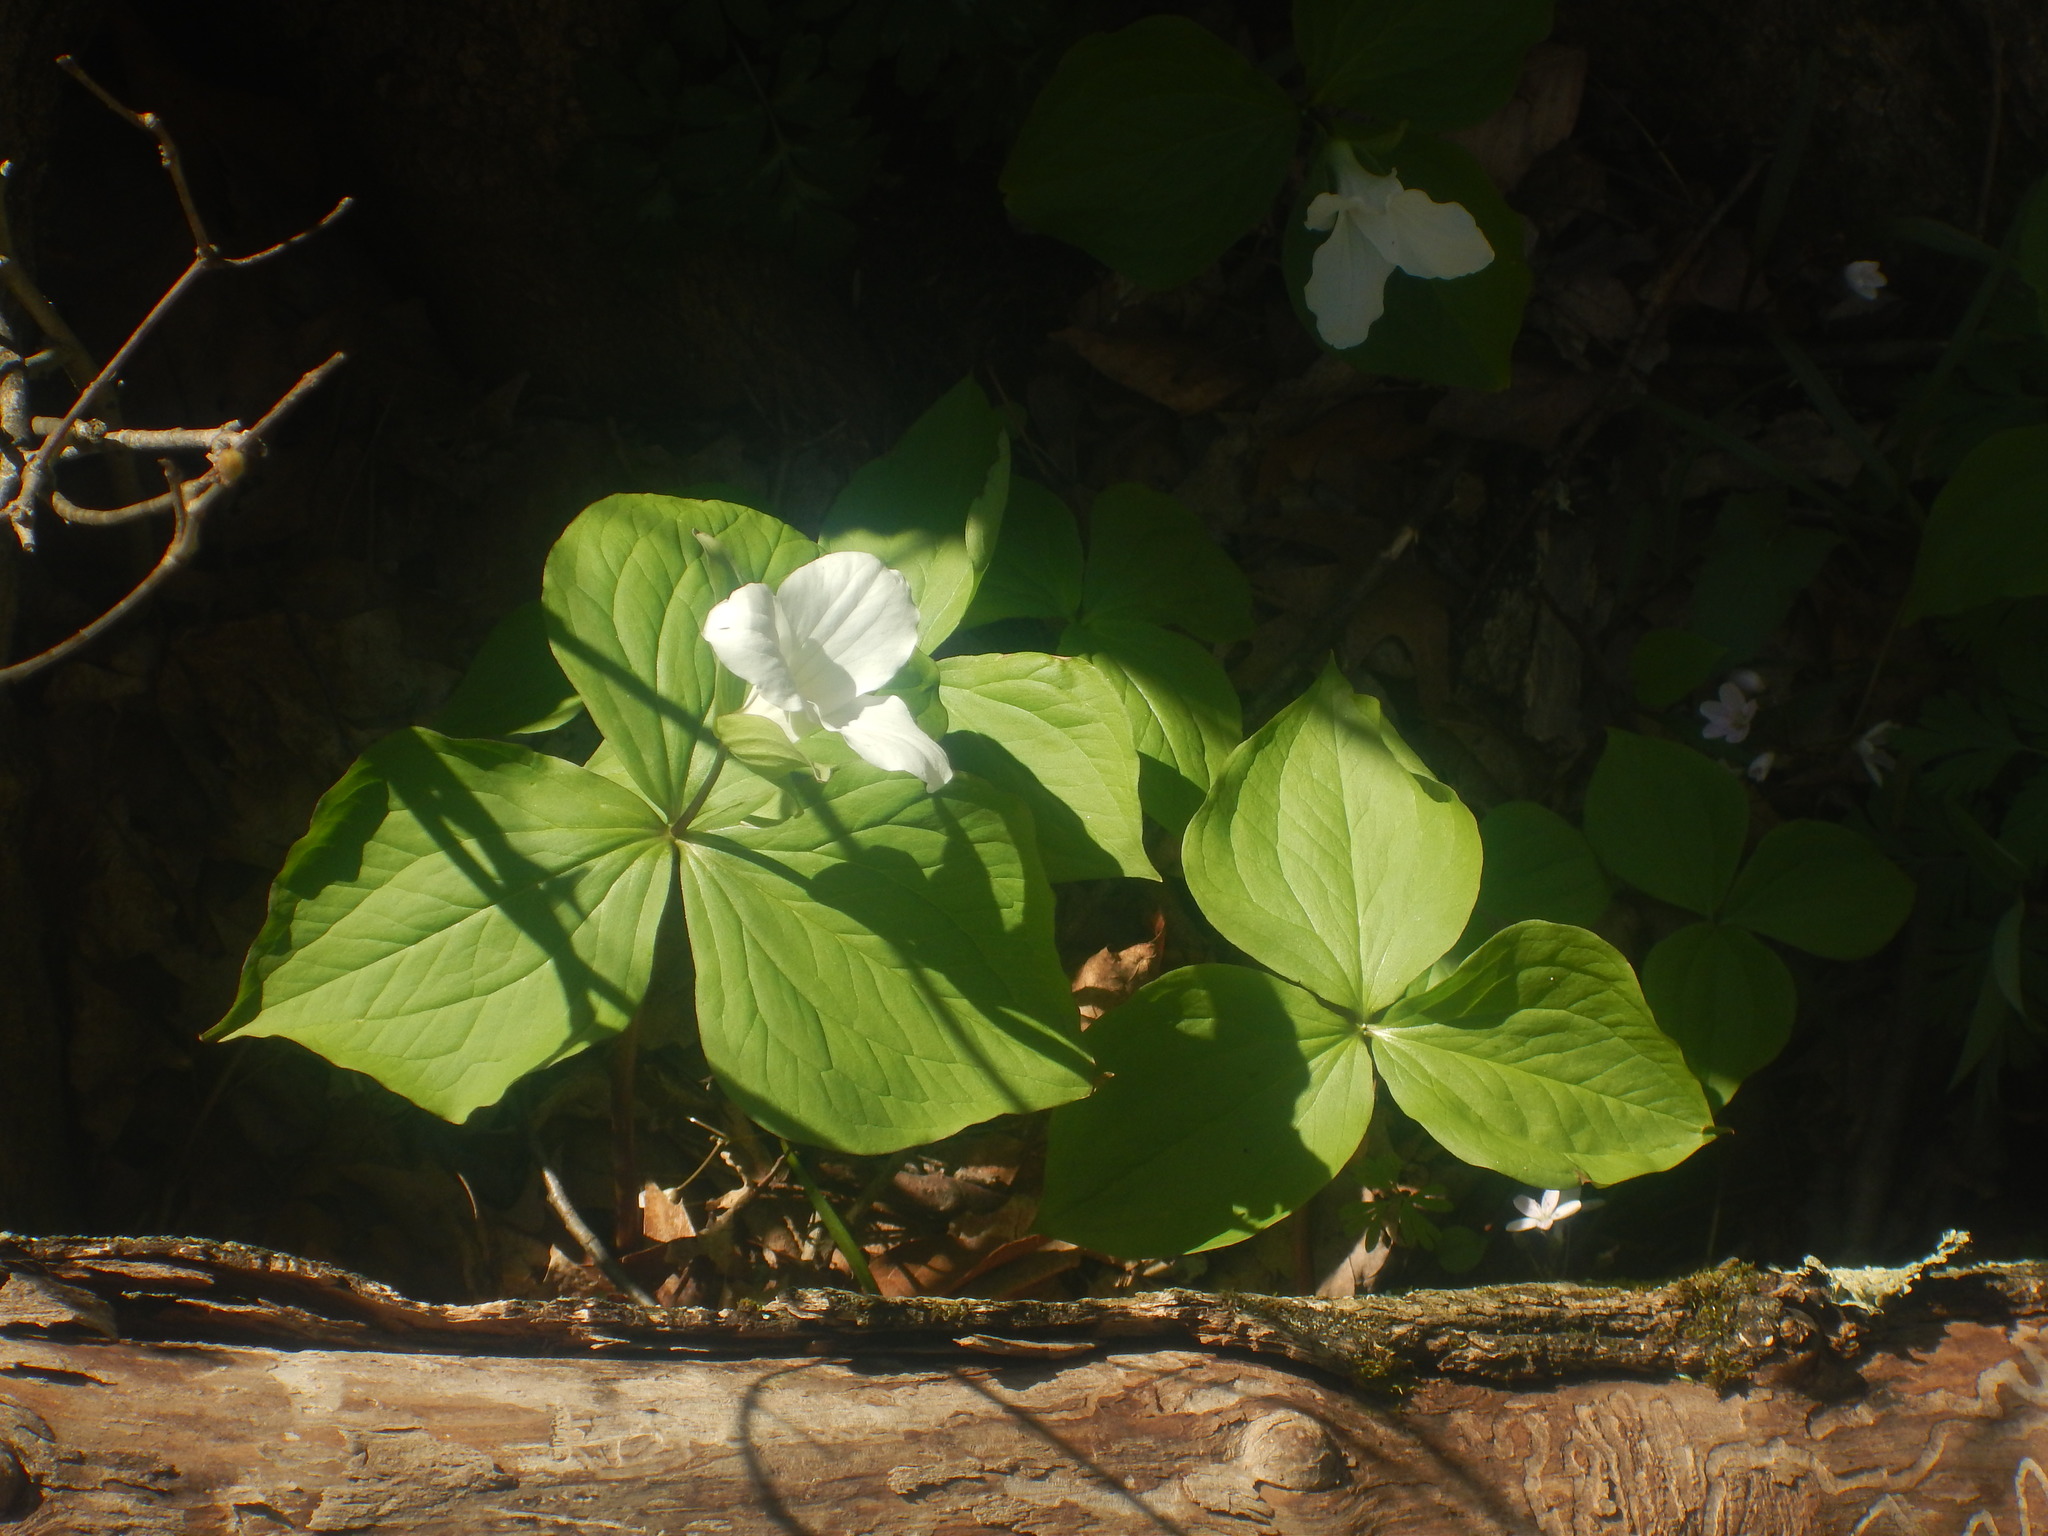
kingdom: Plantae
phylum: Tracheophyta
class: Liliopsida
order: Liliales
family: Melanthiaceae
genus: Trillium
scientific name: Trillium grandiflorum
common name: Great white trillium
